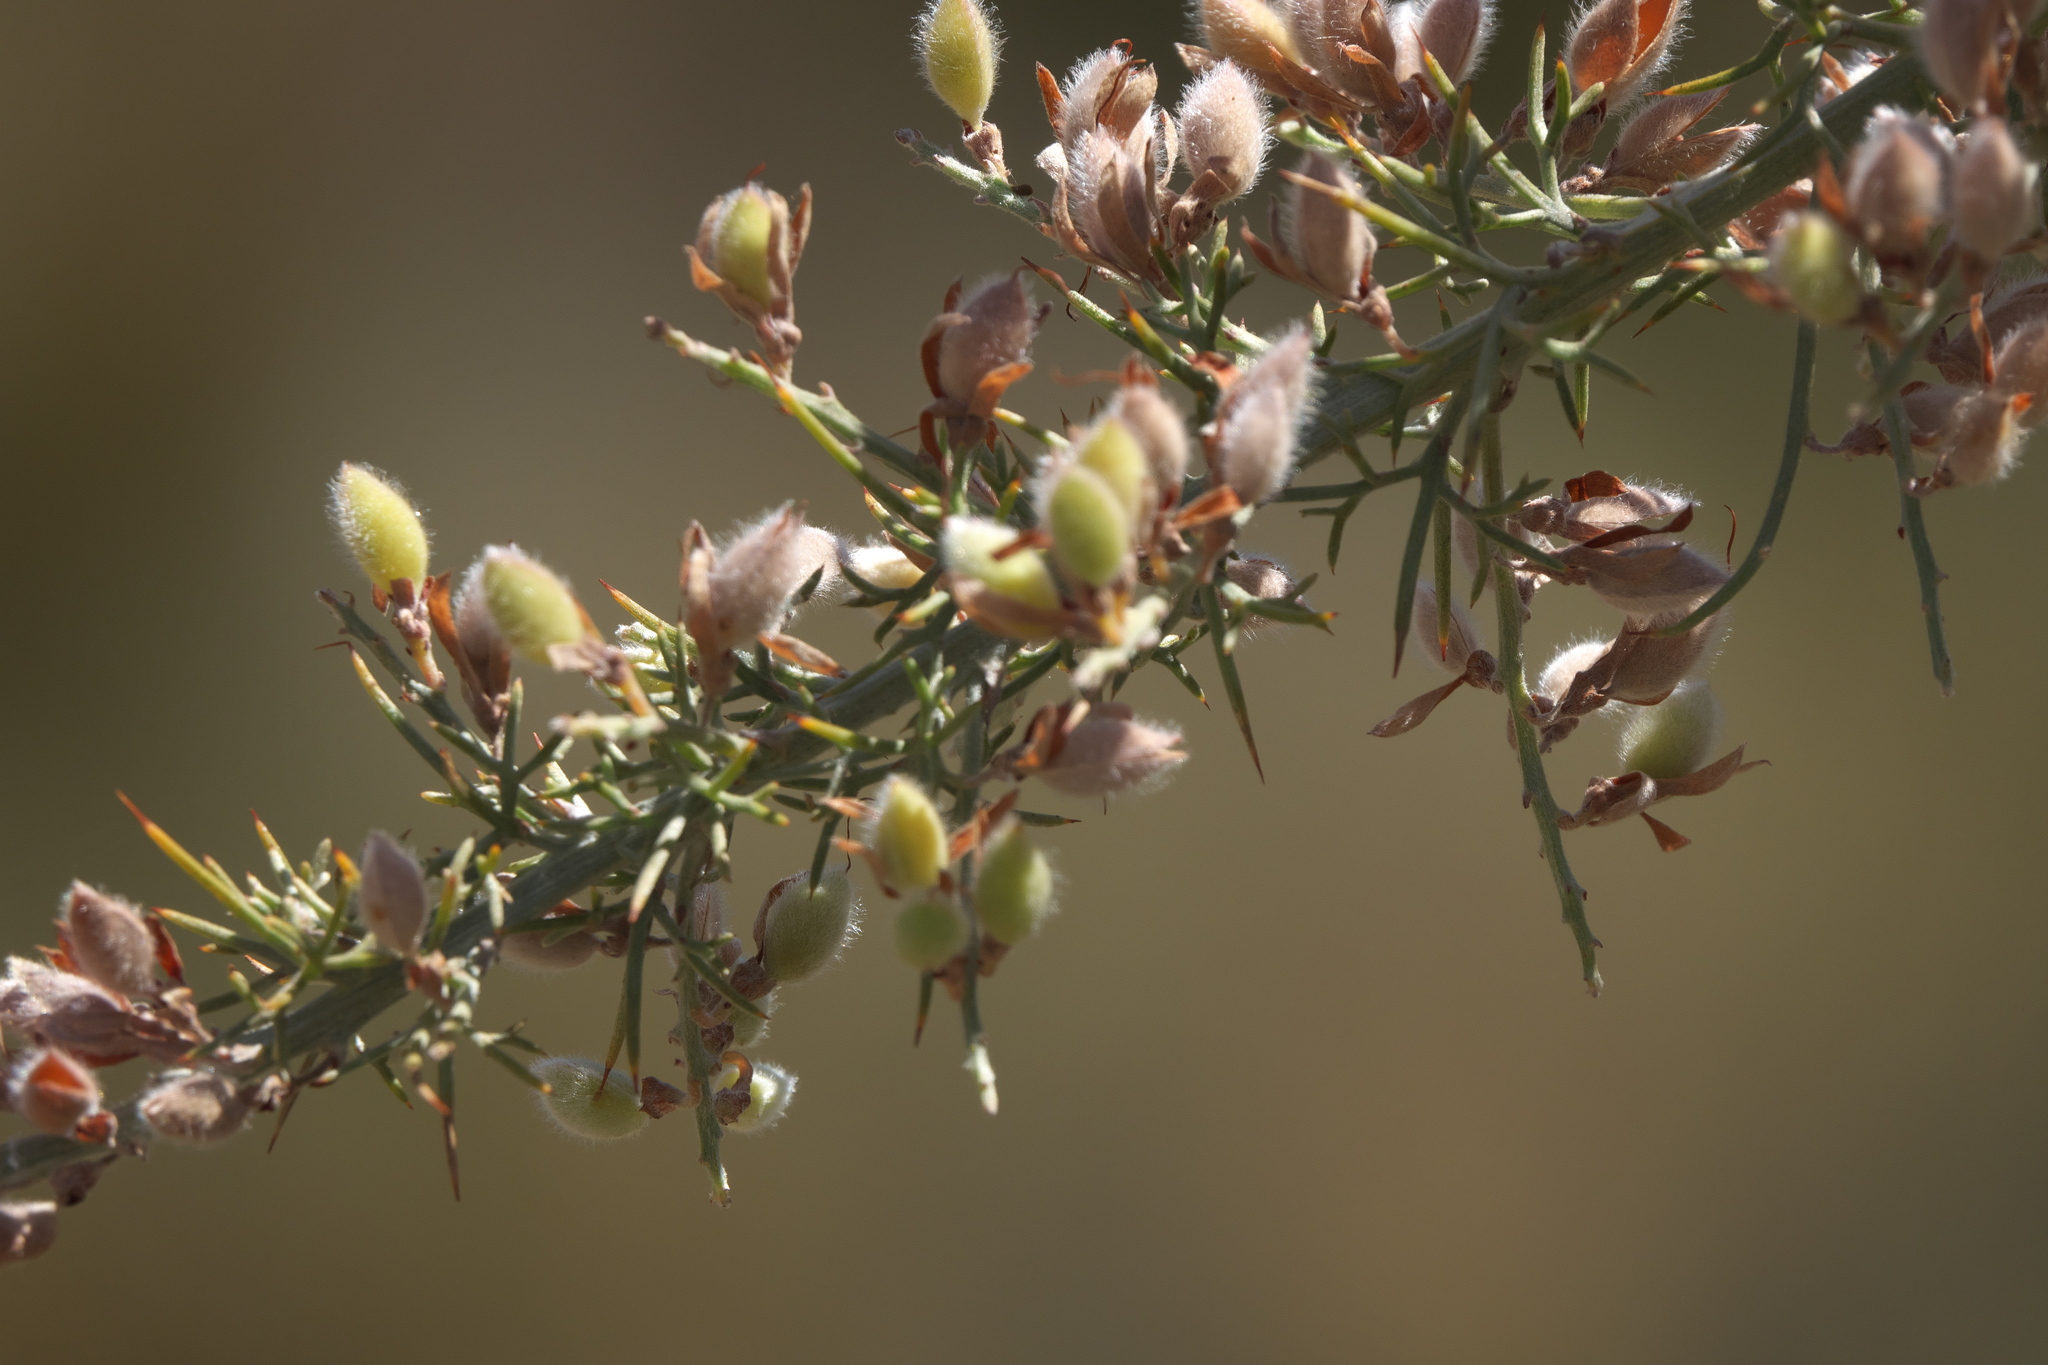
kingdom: Plantae
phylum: Tracheophyta
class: Magnoliopsida
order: Fabales
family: Fabaceae
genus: Jacksonia
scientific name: Jacksonia furcellata
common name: Grey stinkwood
